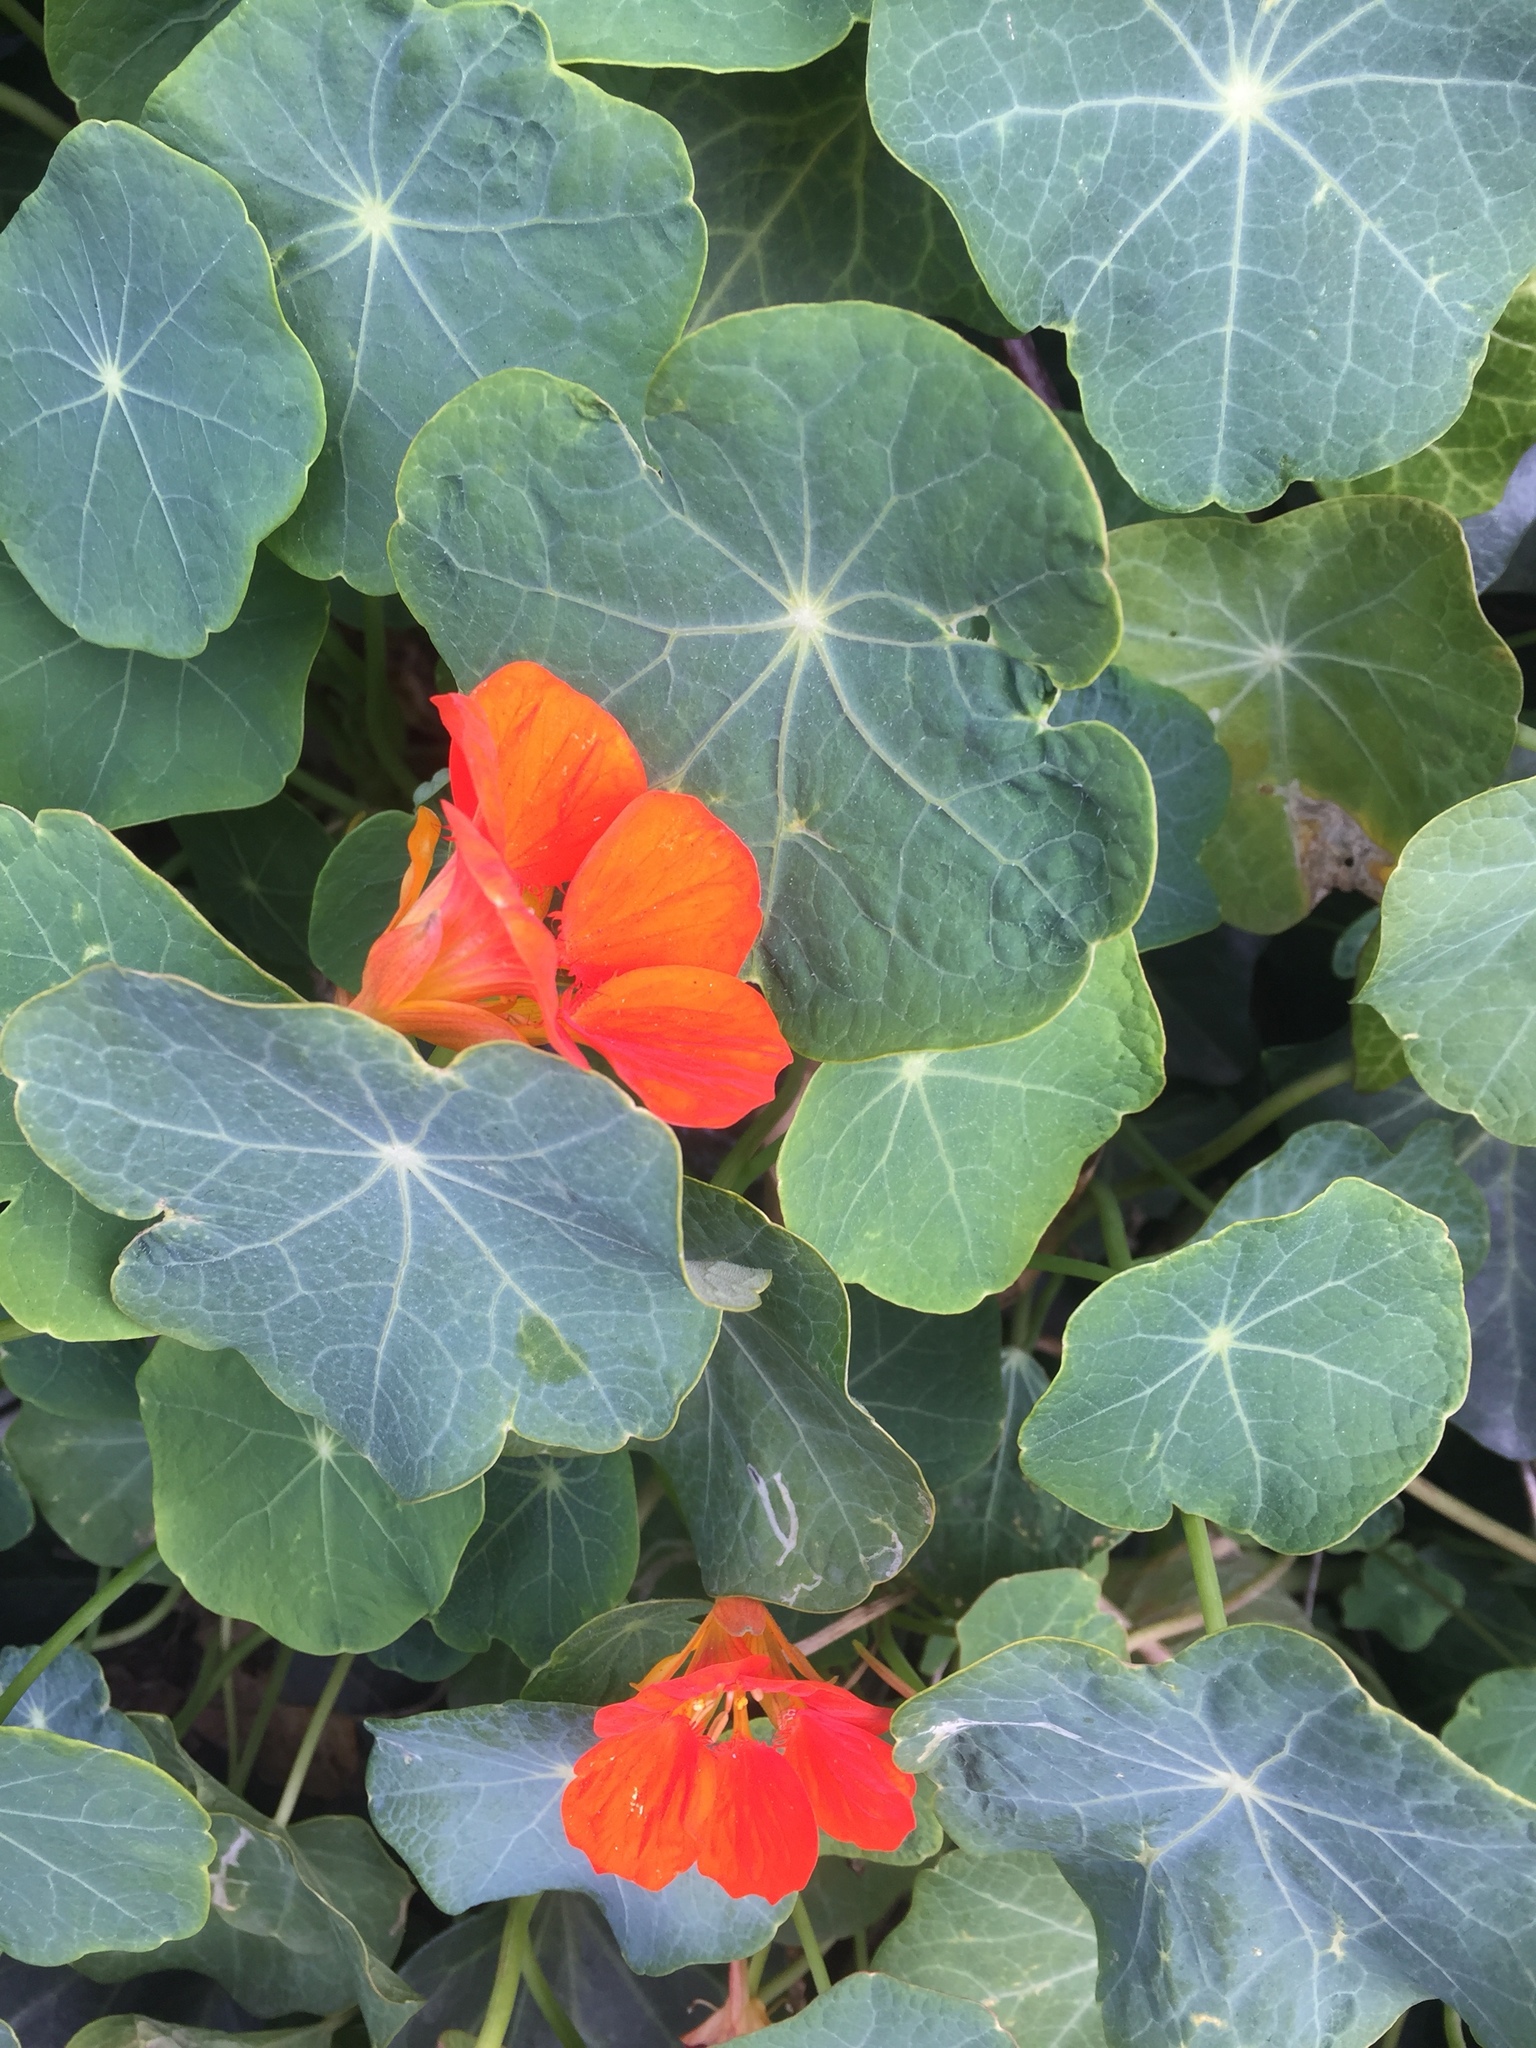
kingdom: Plantae
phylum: Tracheophyta
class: Magnoliopsida
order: Brassicales
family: Tropaeolaceae
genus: Tropaeolum
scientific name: Tropaeolum majus
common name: Nasturtium
